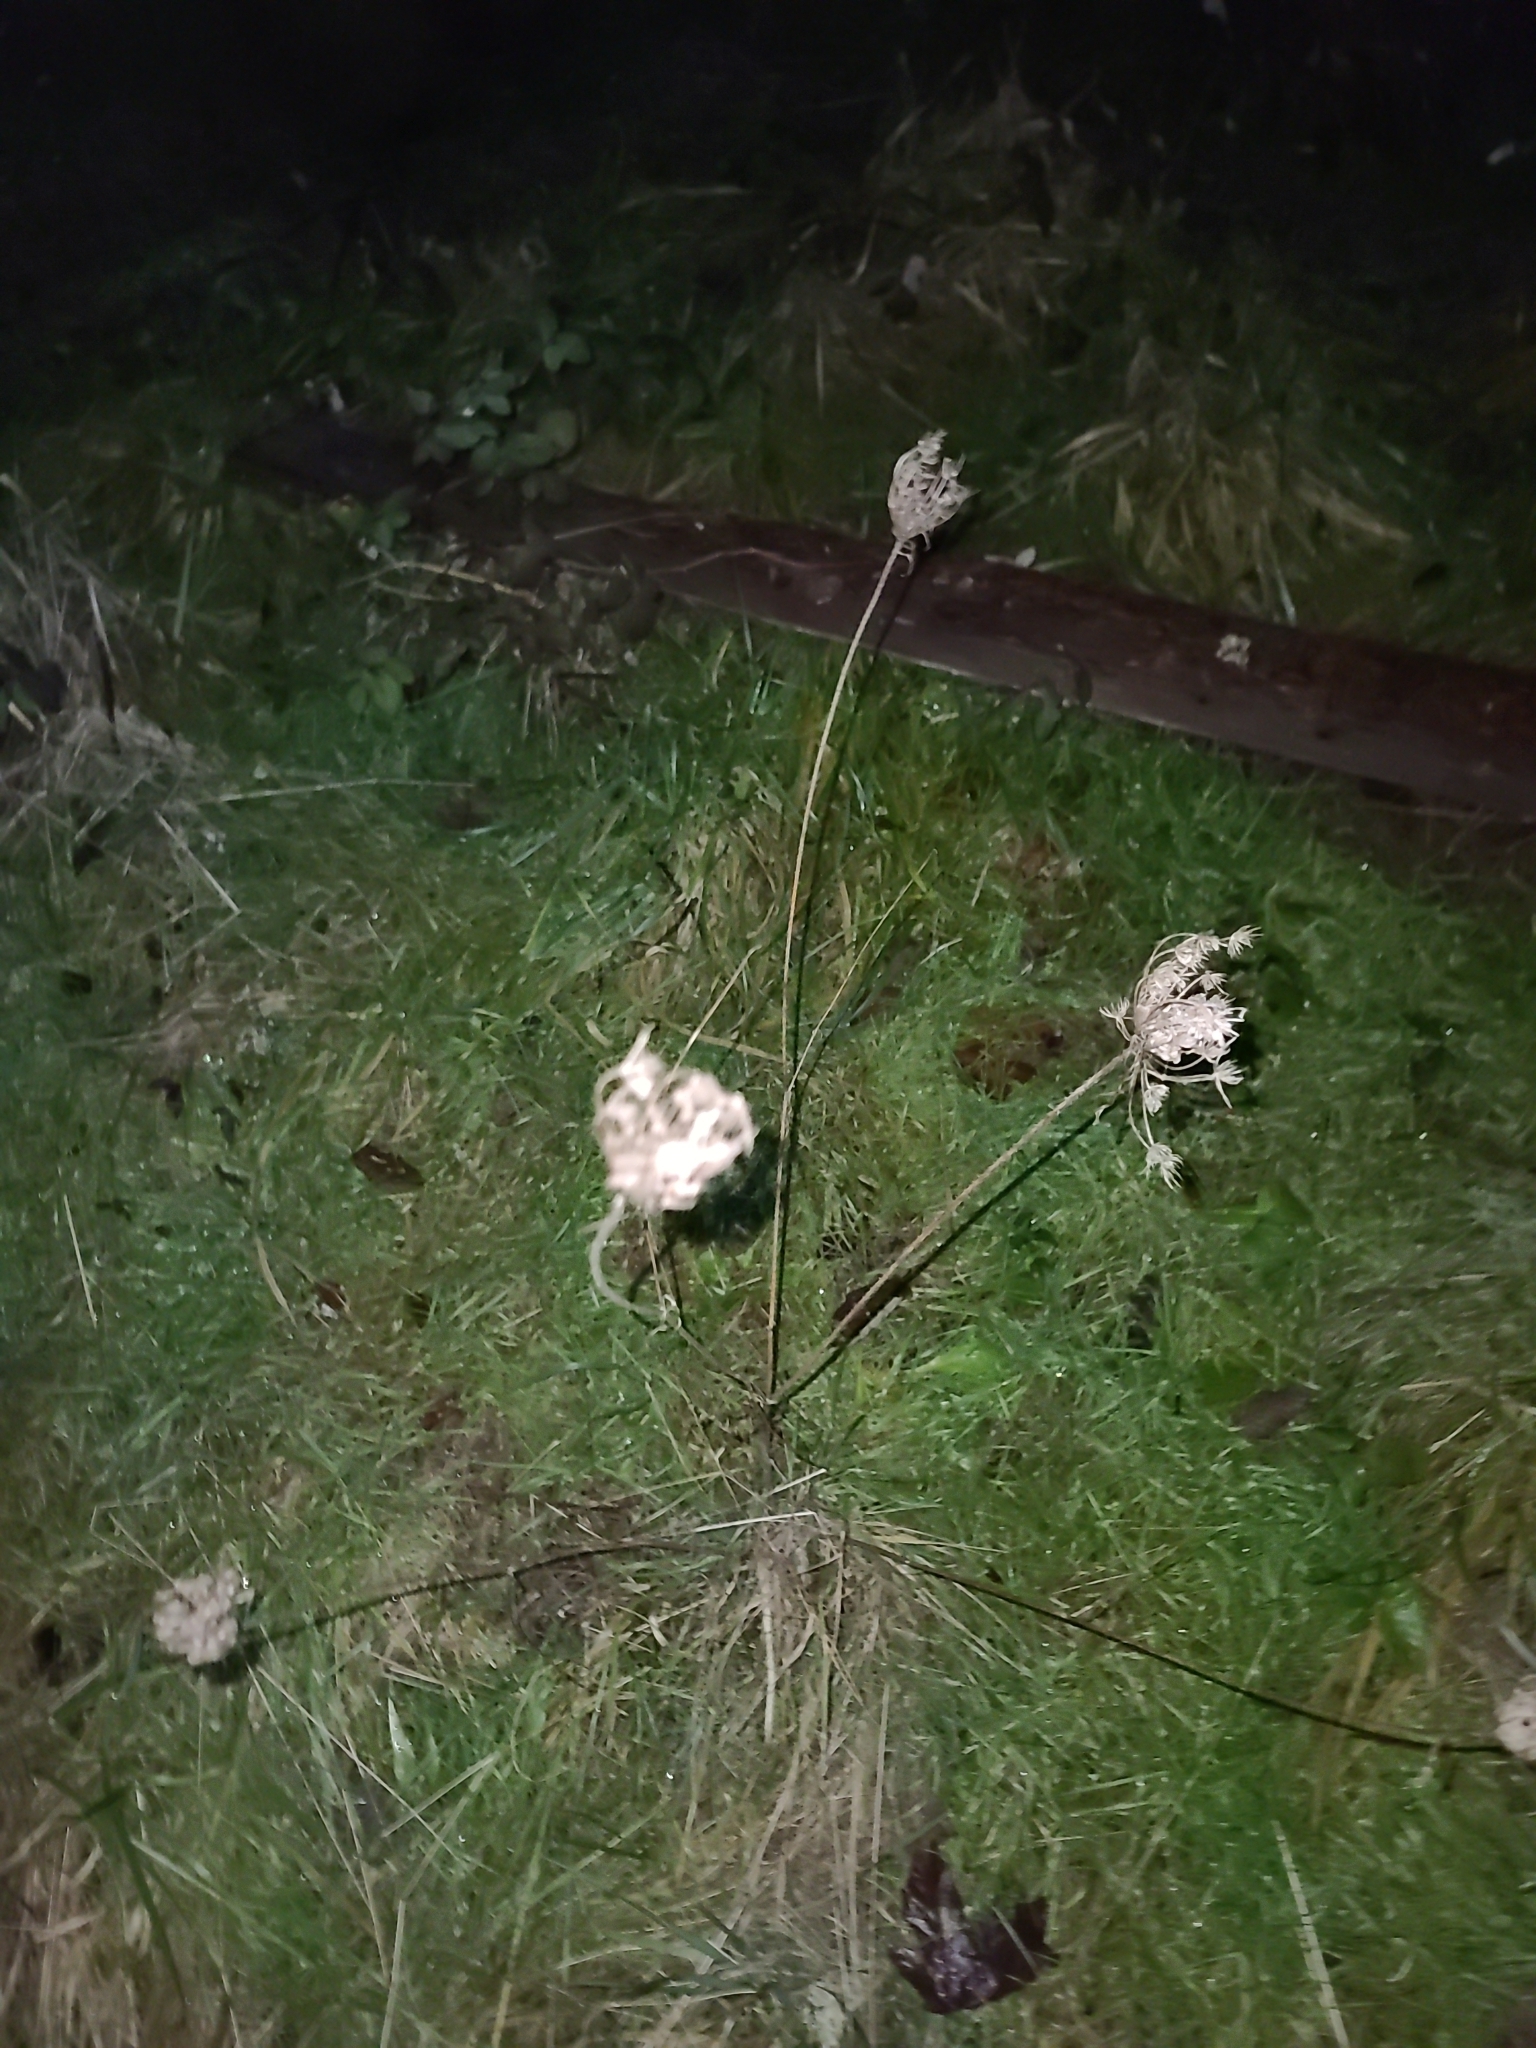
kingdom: Plantae
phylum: Tracheophyta
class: Magnoliopsida
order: Apiales
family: Apiaceae
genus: Daucus
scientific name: Daucus carota
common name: Wild carrot
